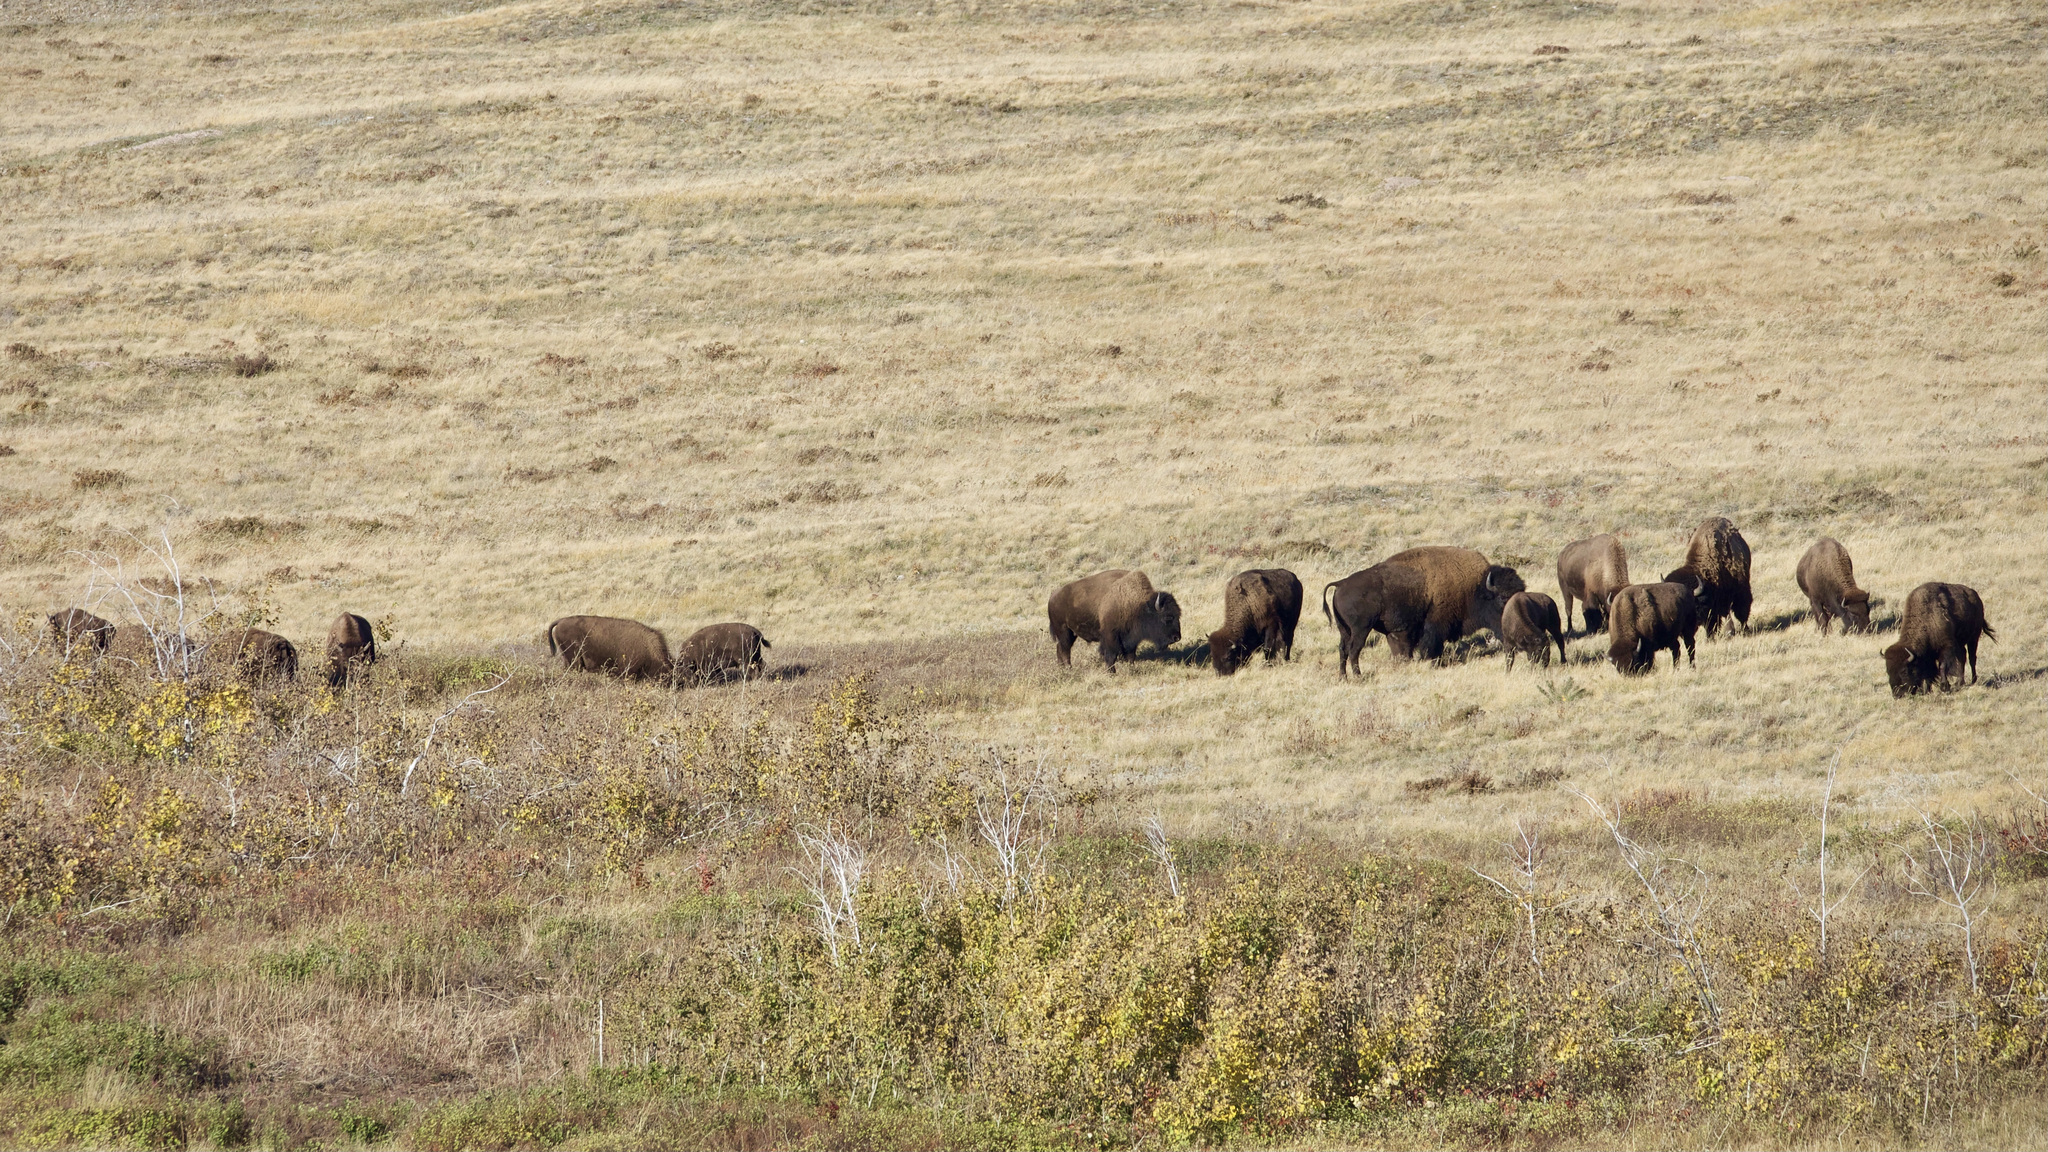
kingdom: Animalia
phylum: Chordata
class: Mammalia
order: Artiodactyla
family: Bovidae
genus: Bison
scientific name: Bison bison
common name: American bison
